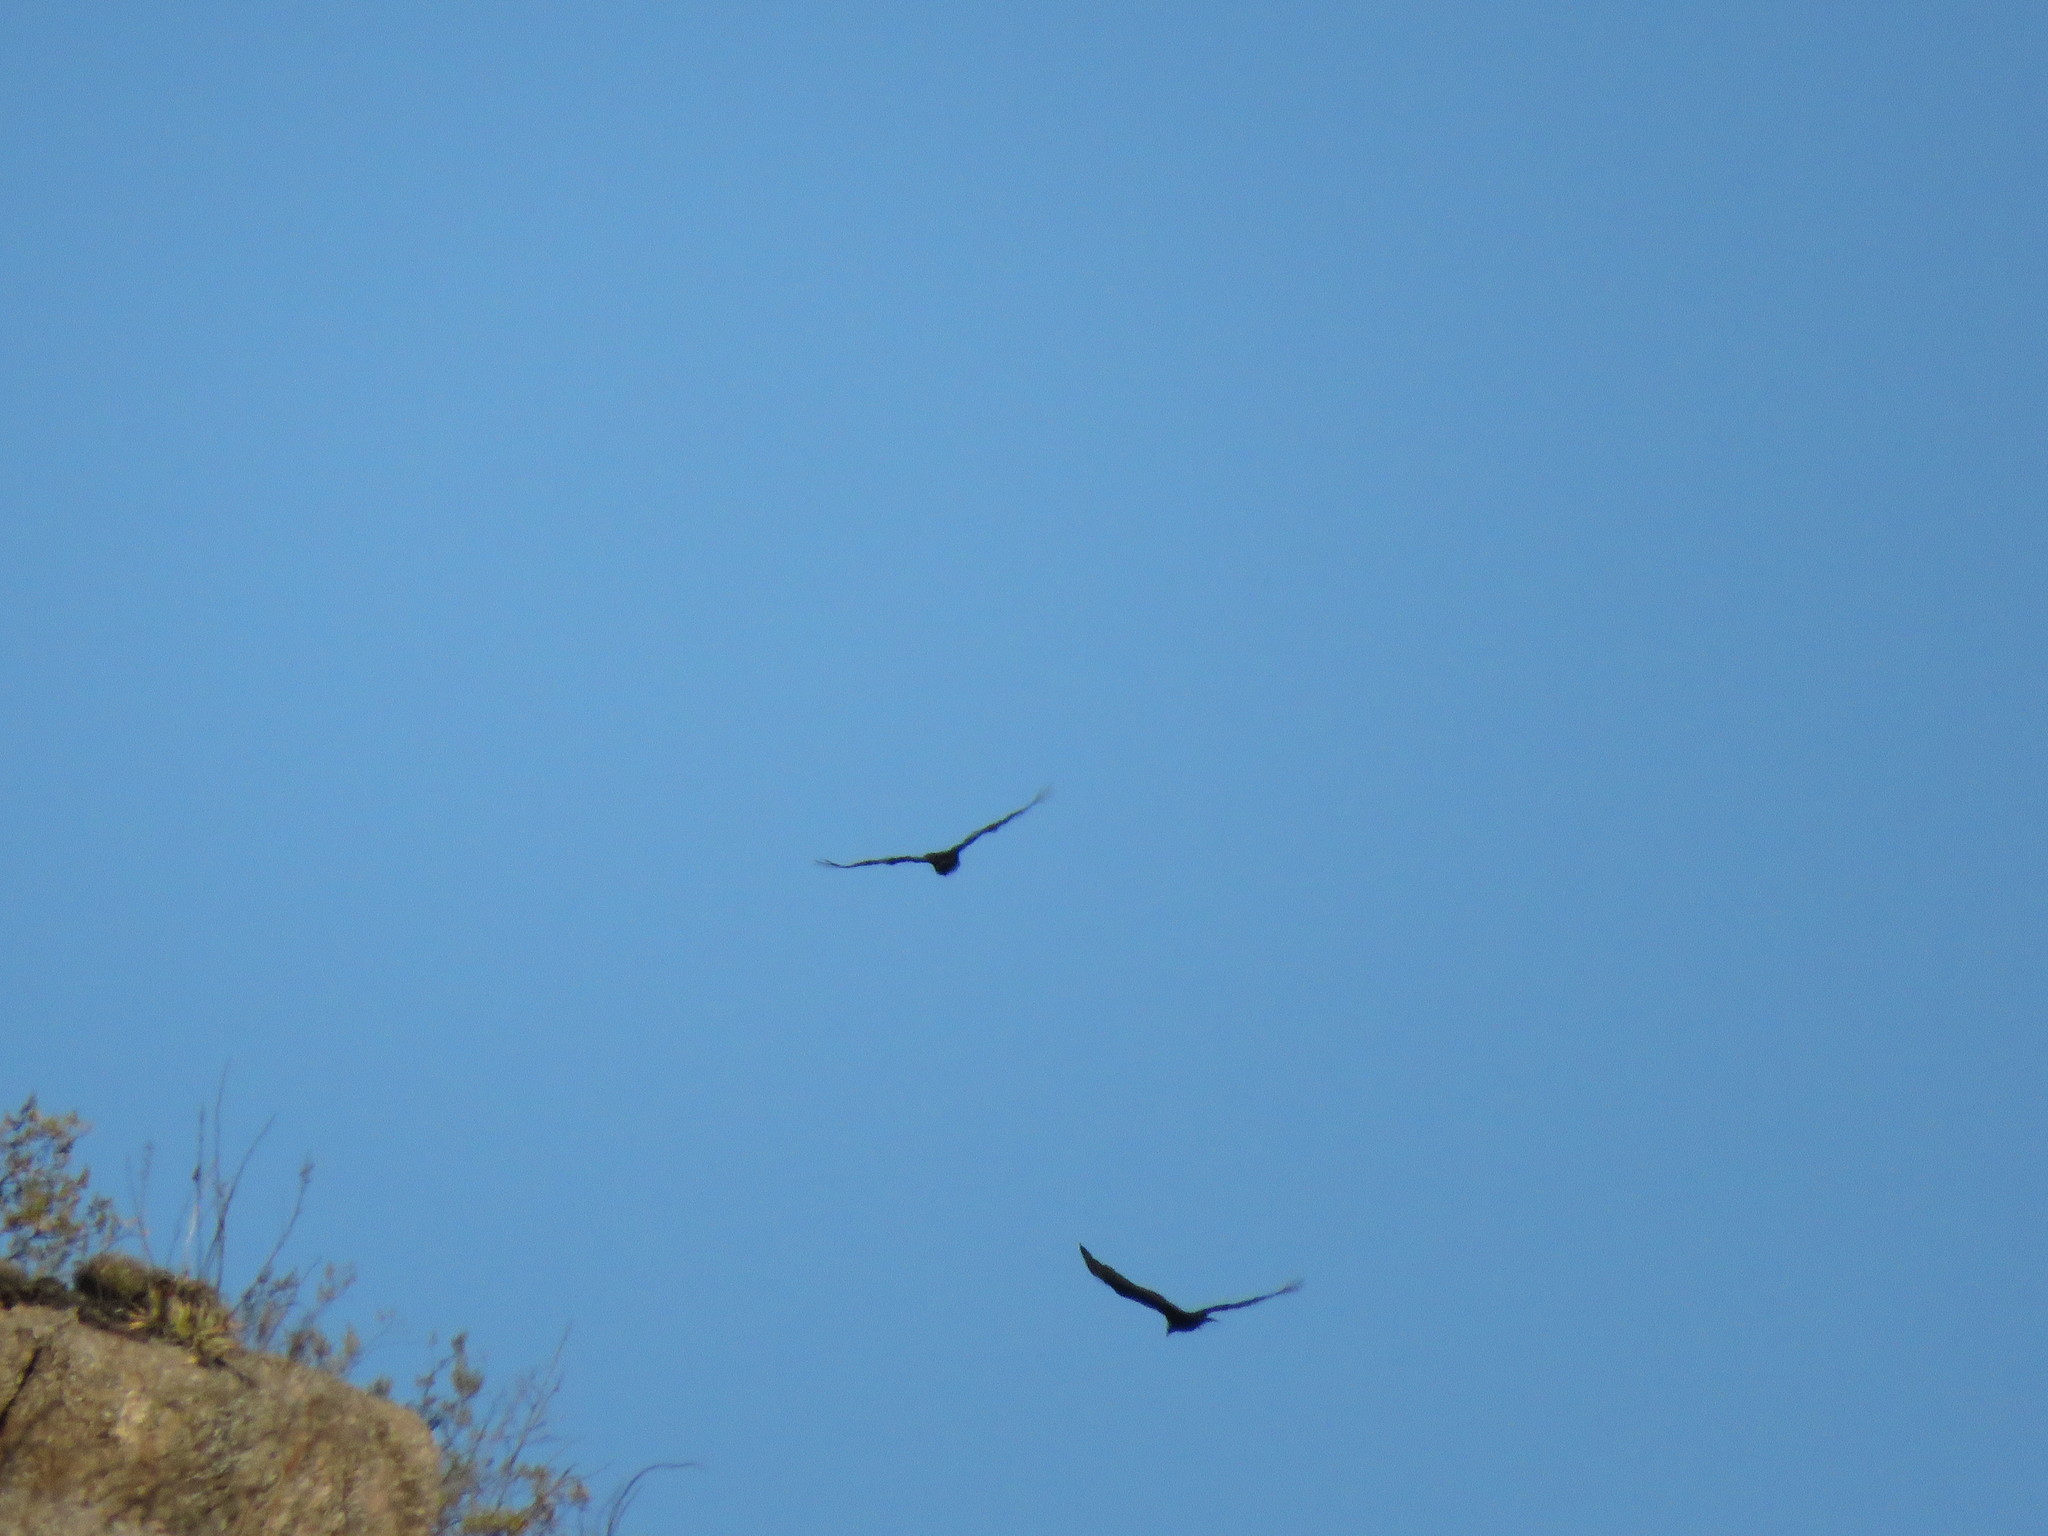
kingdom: Animalia
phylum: Chordata
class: Aves
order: Accipitriformes
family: Cathartidae
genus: Coragyps
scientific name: Coragyps atratus
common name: Black vulture
